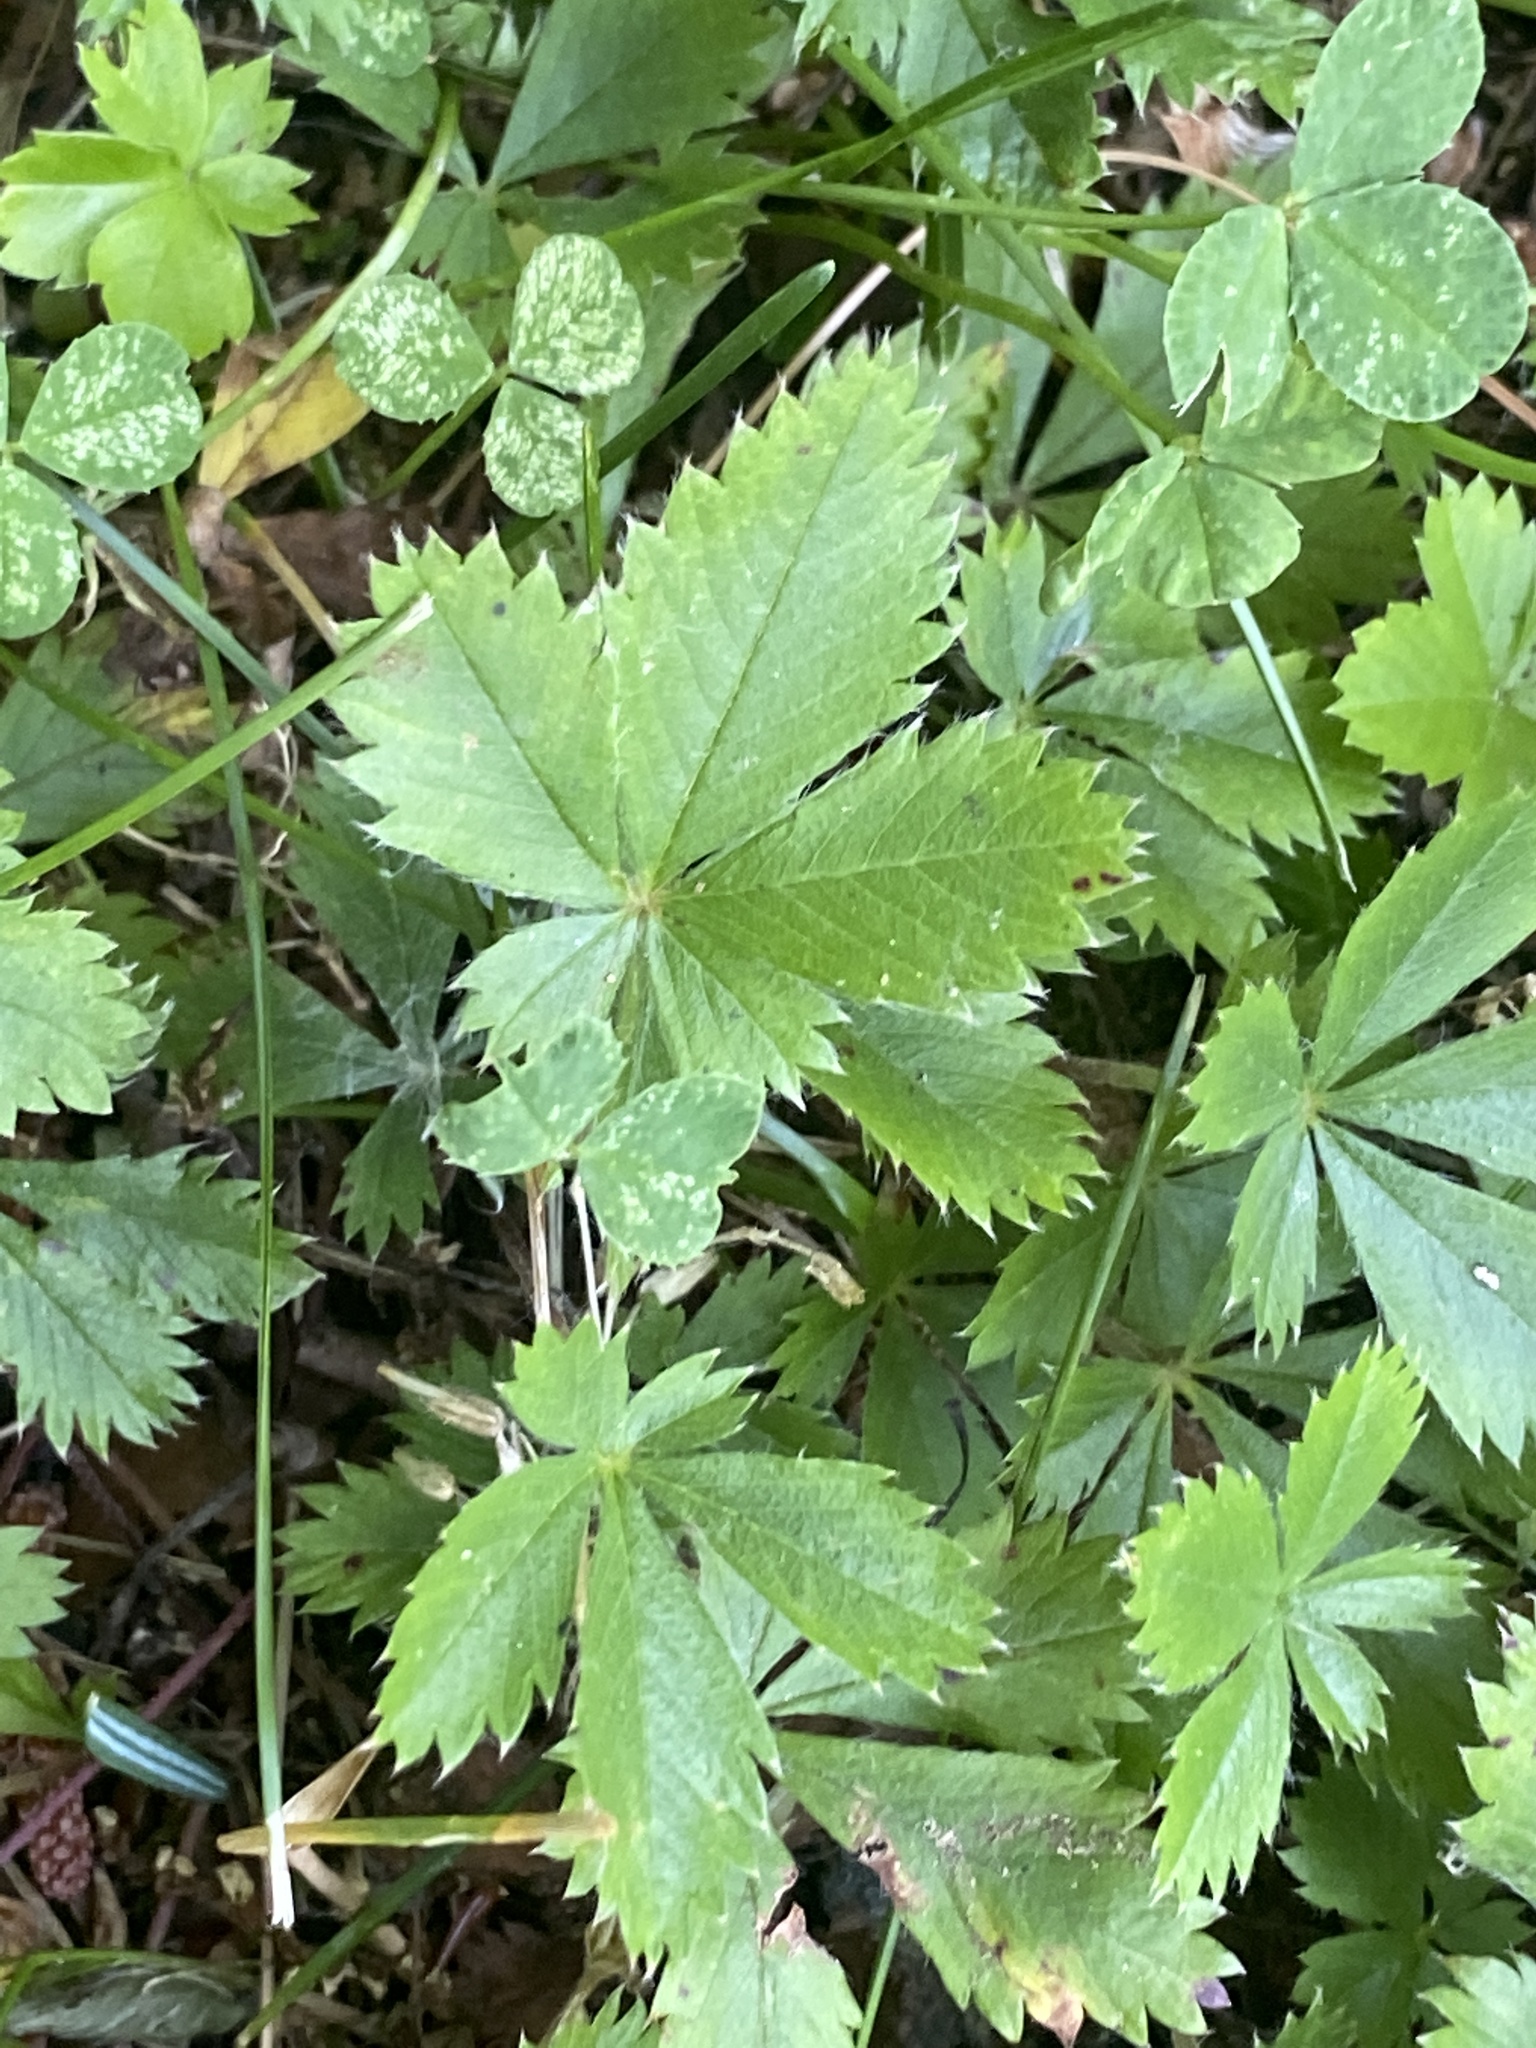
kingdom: Plantae
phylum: Tracheophyta
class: Magnoliopsida
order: Rosales
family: Rosaceae
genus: Potentilla
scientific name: Potentilla canadensis
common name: Canada cinquefoil
